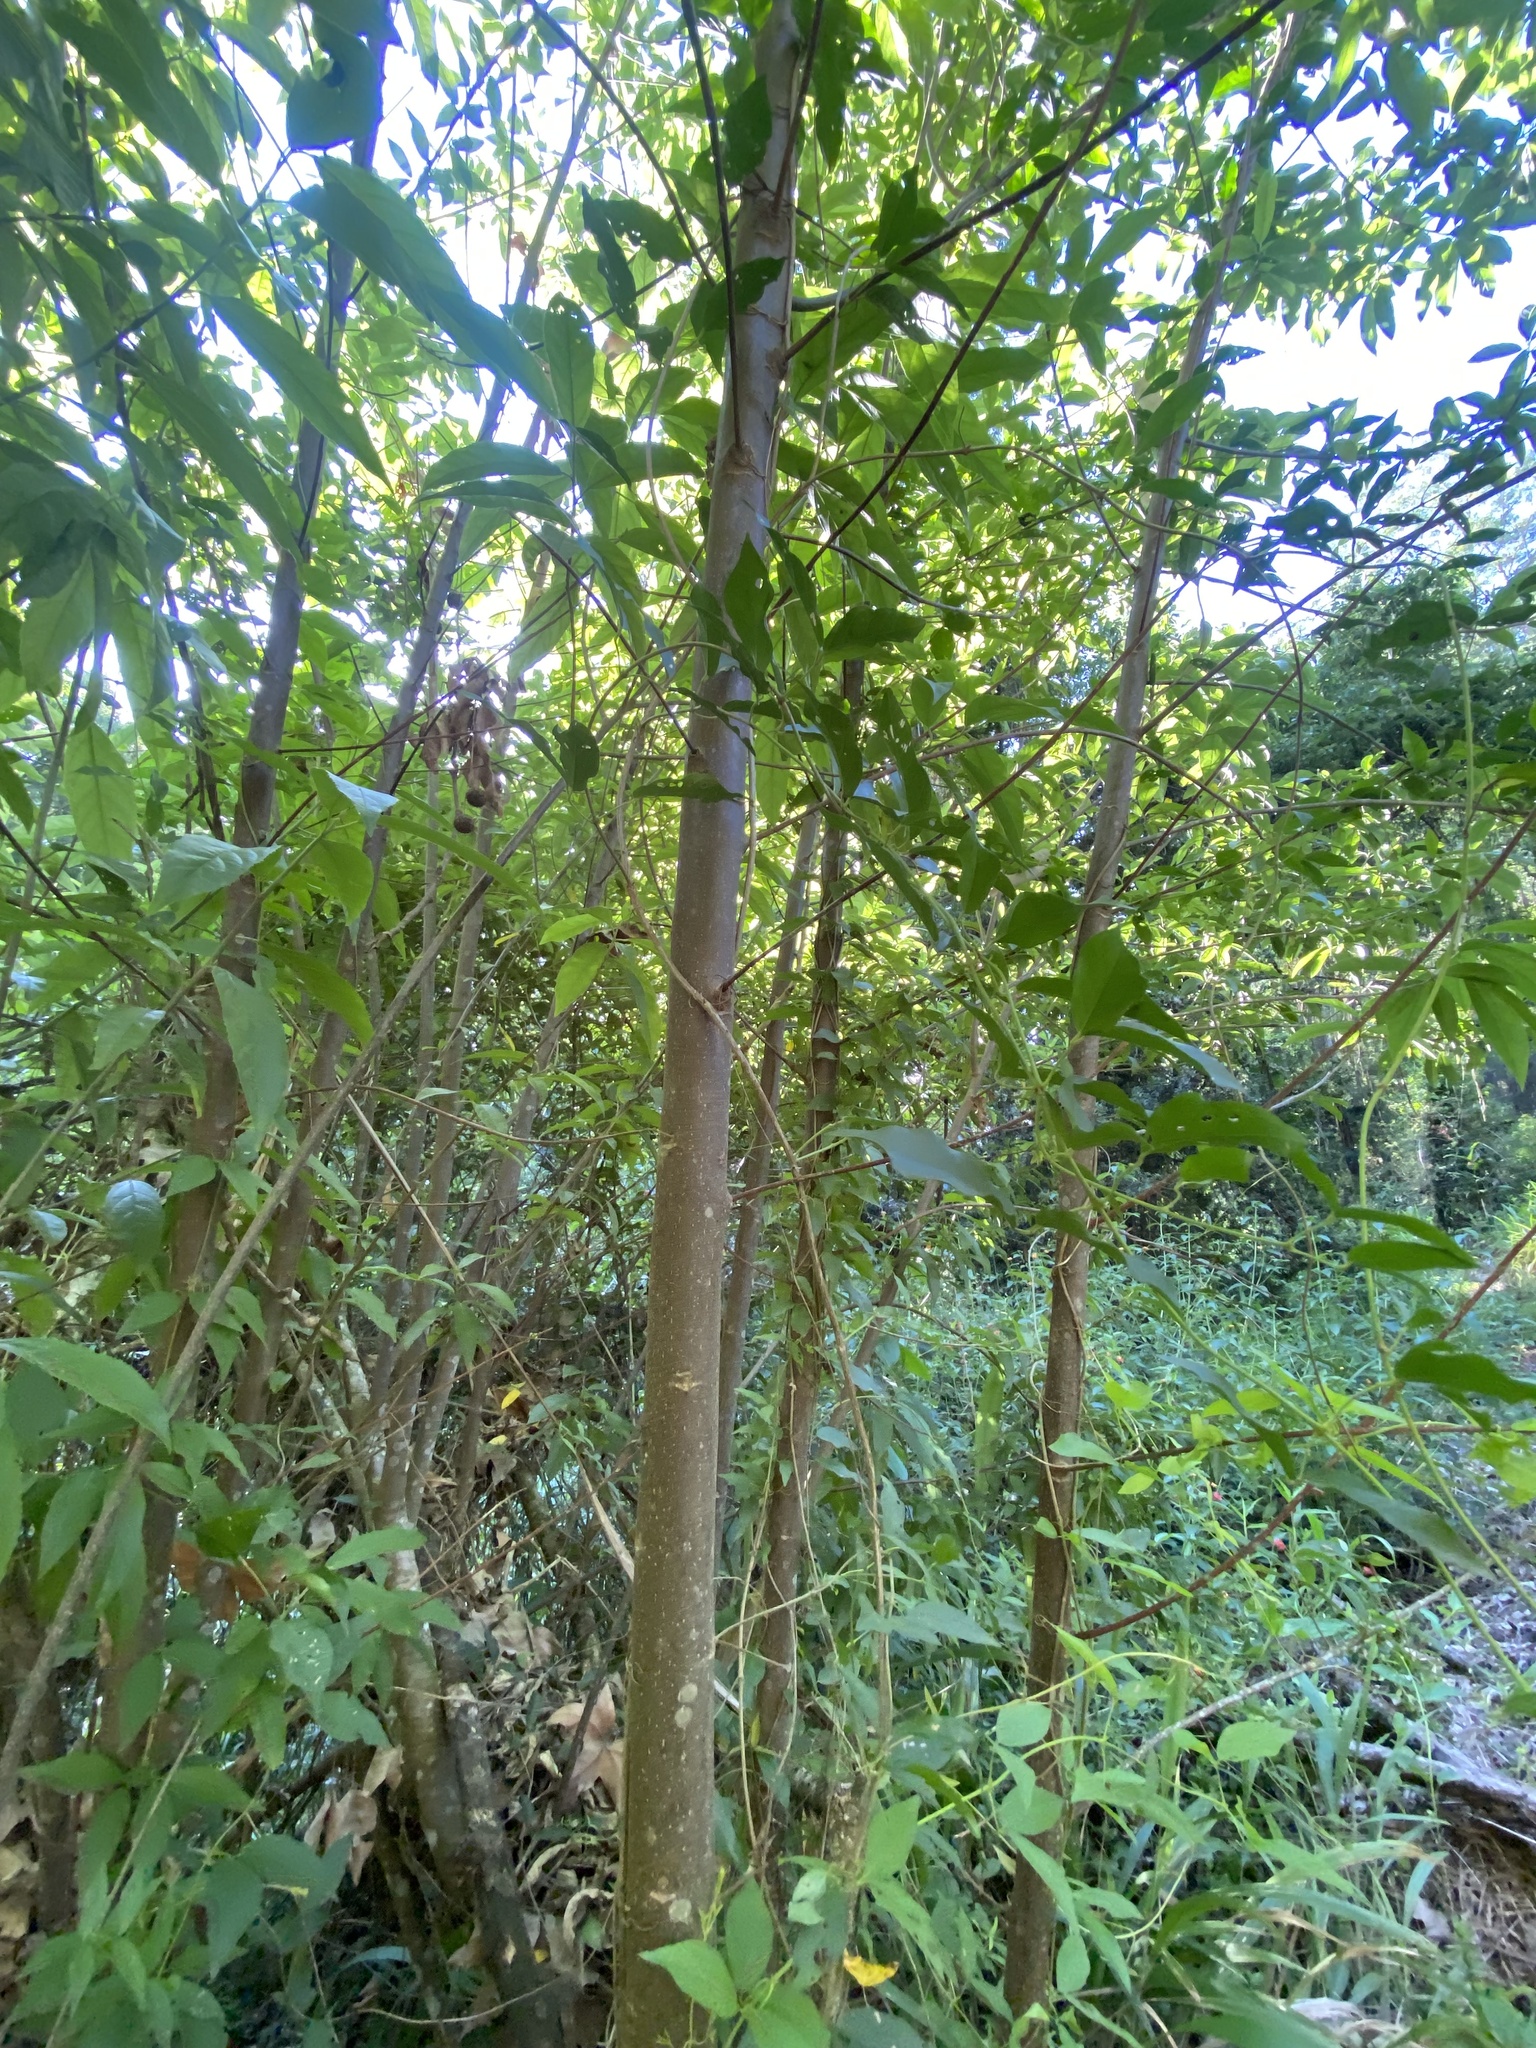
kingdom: Plantae
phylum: Tracheophyta
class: Magnoliopsida
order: Malpighiales
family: Achariaceae
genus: Kiggelaria
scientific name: Kiggelaria africana
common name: Wild peach
